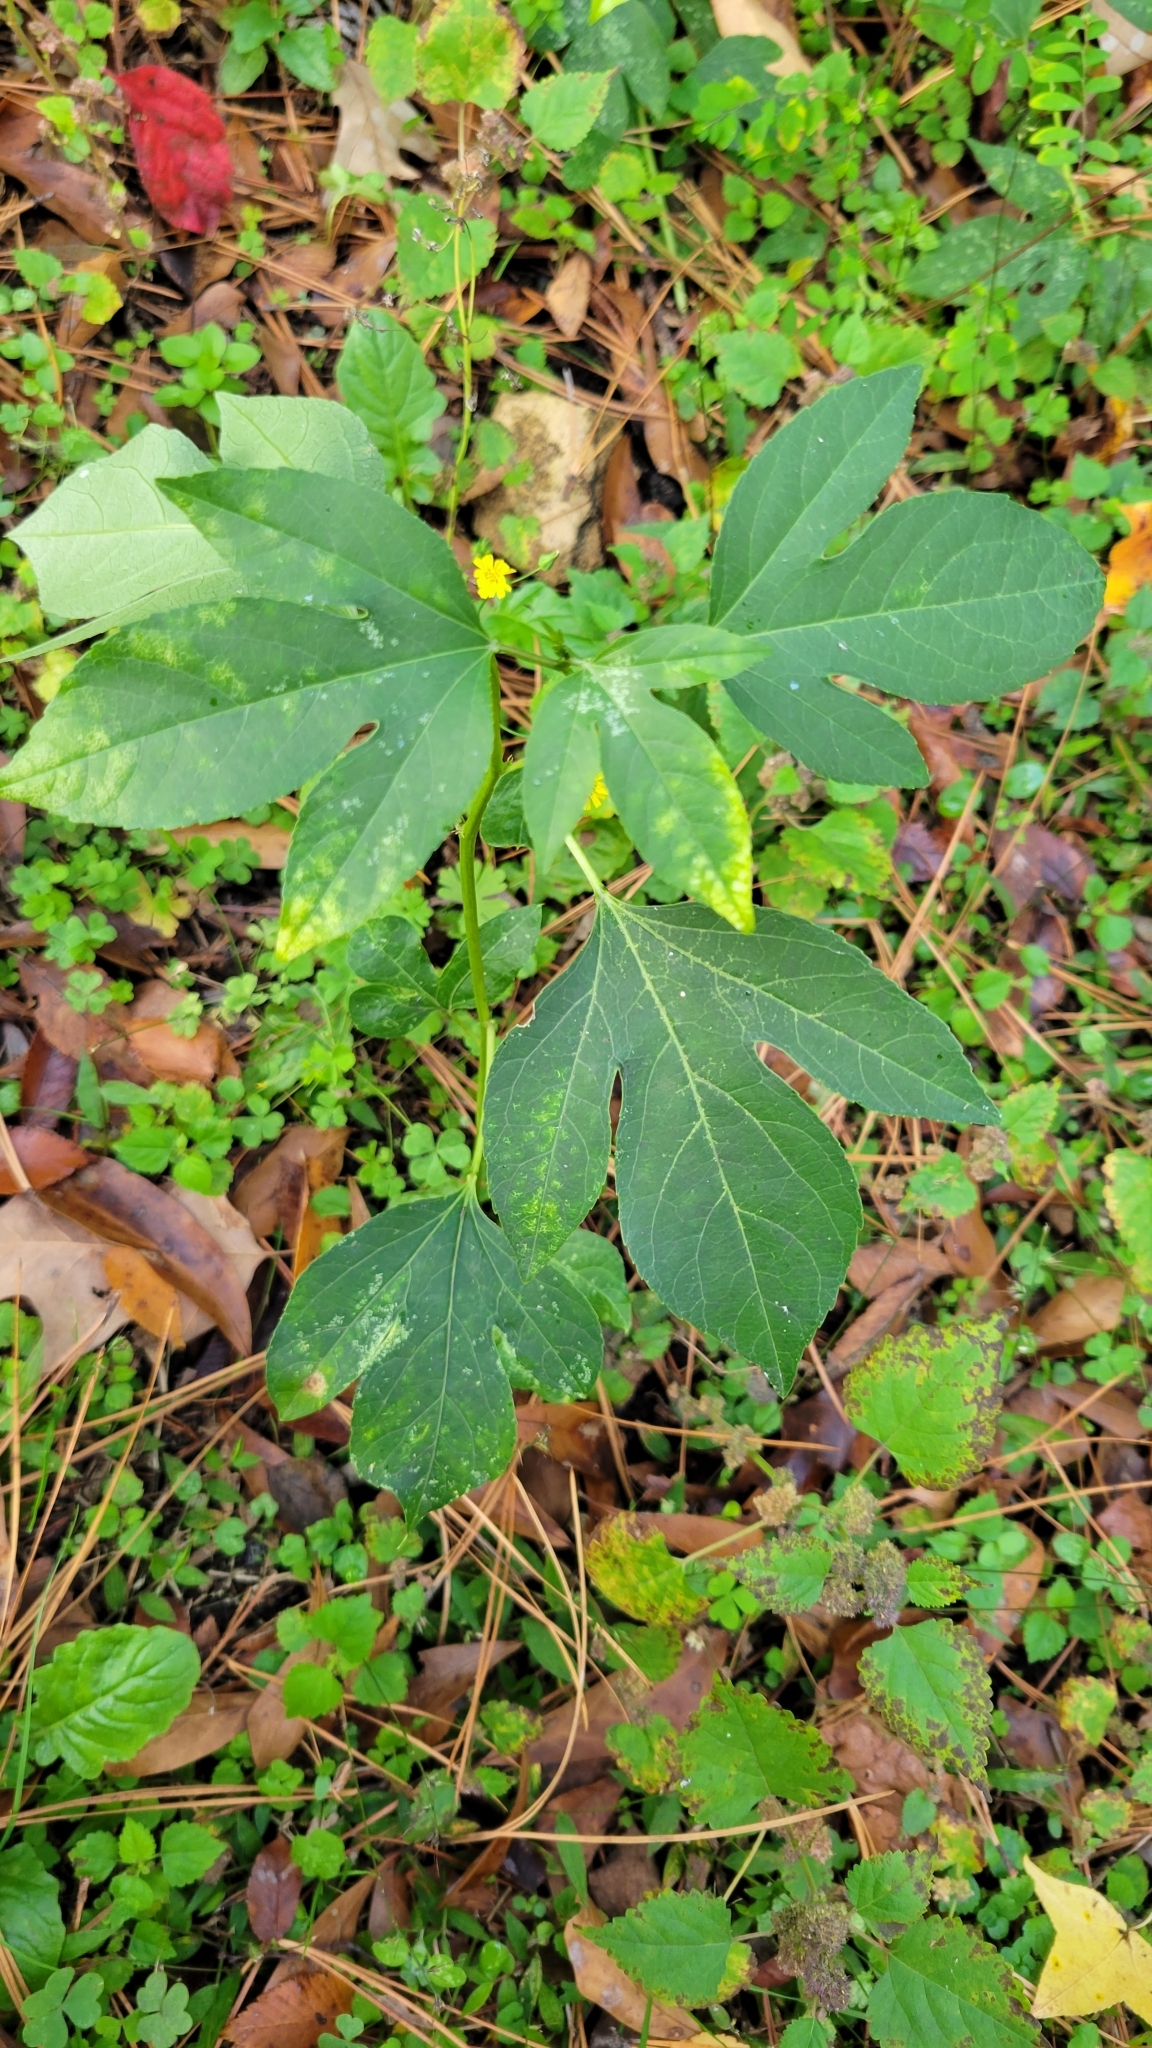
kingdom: Plantae
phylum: Tracheophyta
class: Magnoliopsida
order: Malpighiales
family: Passifloraceae
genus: Passiflora
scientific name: Passiflora incarnata
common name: Apricot-vine
